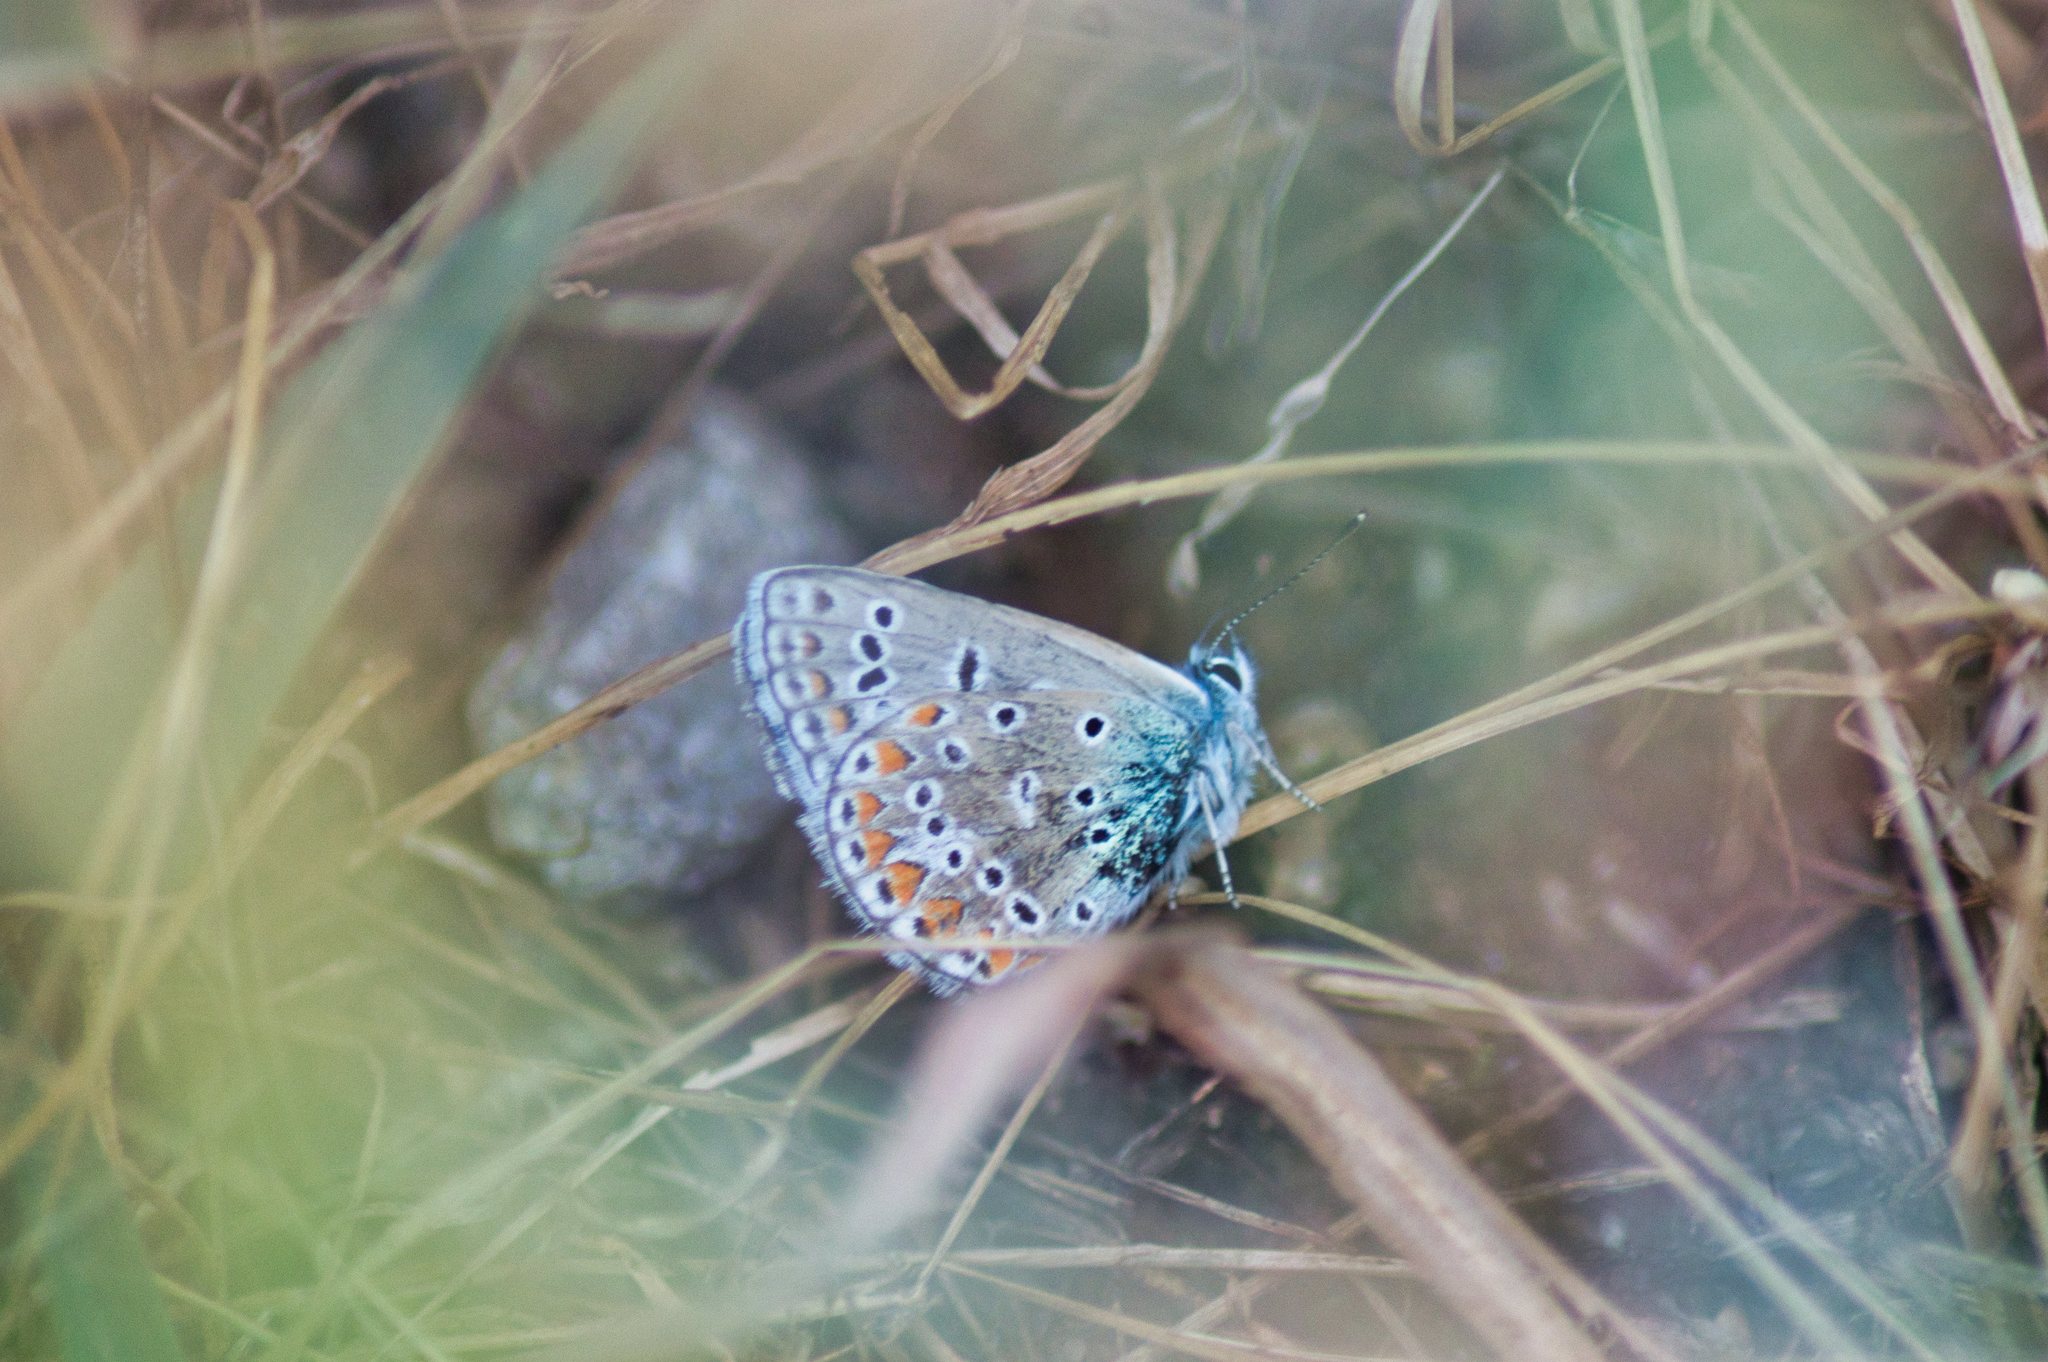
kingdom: Animalia
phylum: Arthropoda
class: Insecta
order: Lepidoptera
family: Lycaenidae
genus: Polyommatus
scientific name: Polyommatus icarus
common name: Common blue
